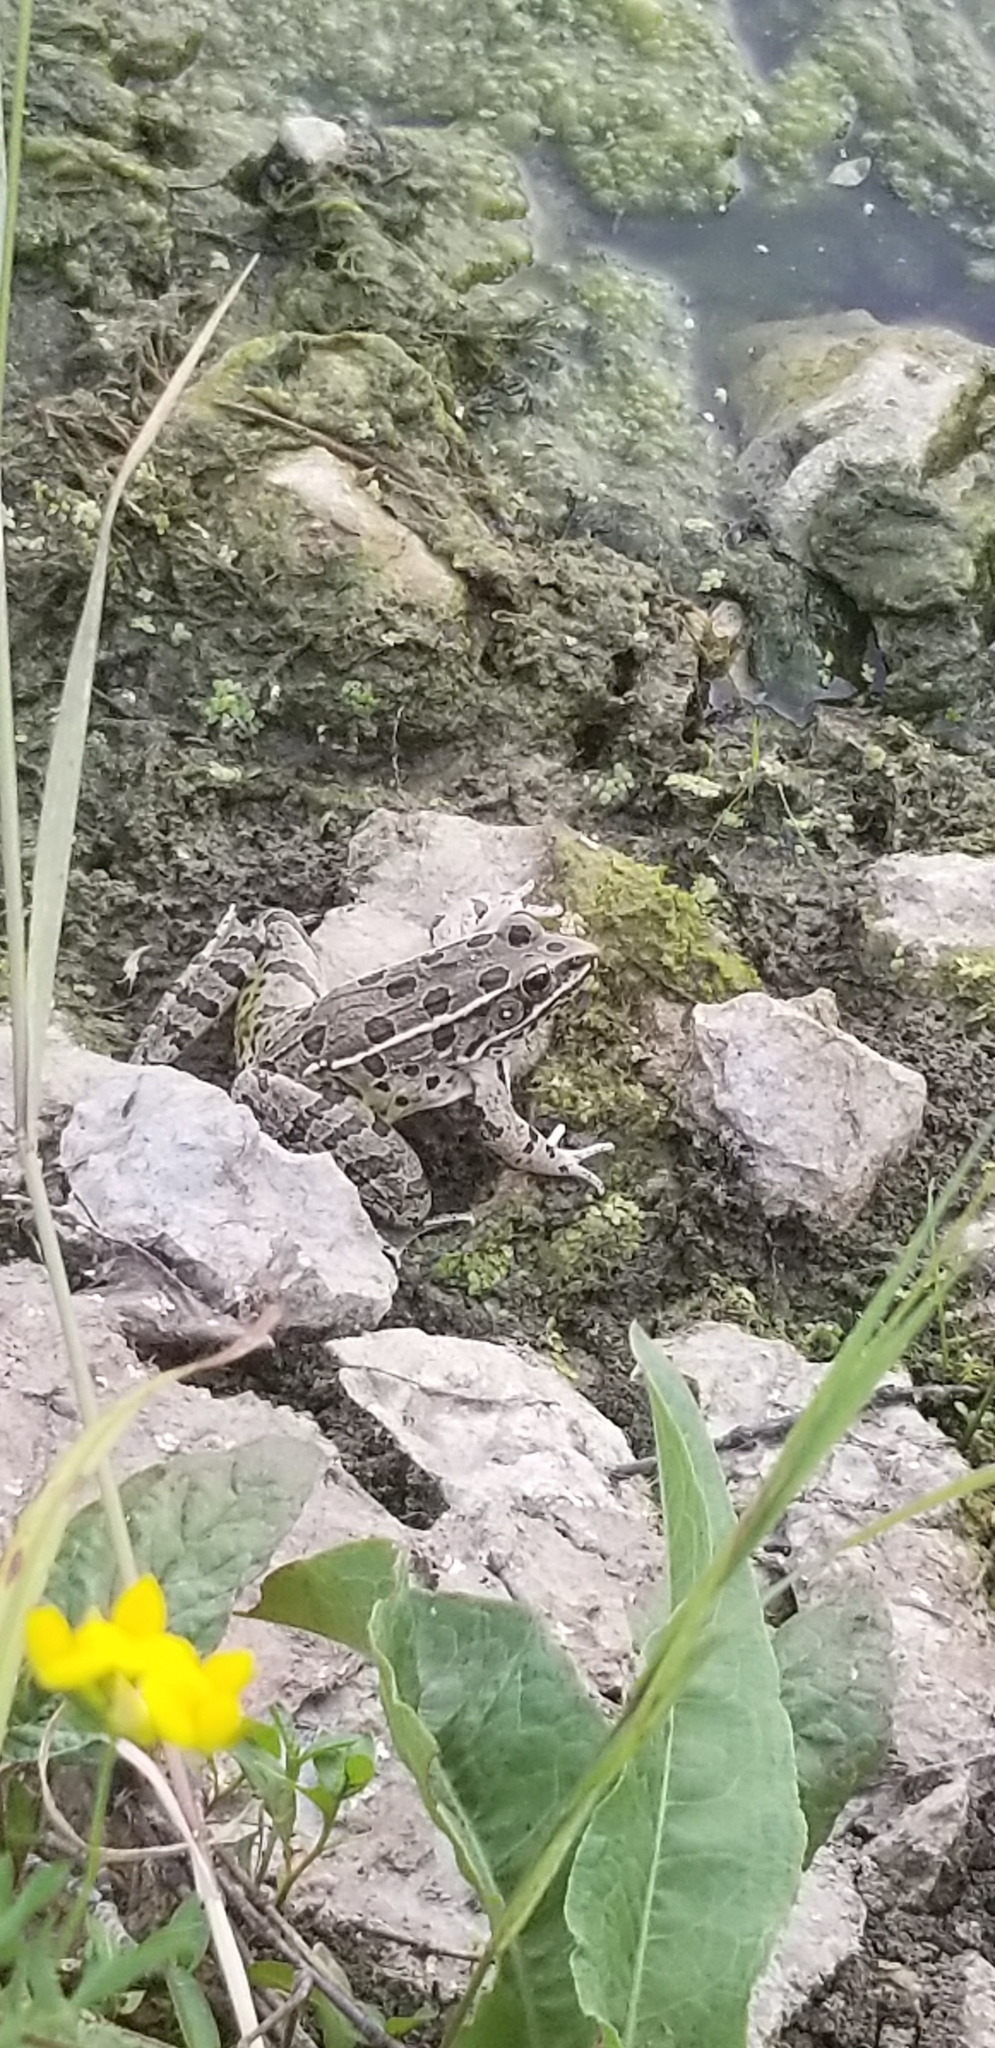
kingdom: Animalia
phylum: Chordata
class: Amphibia
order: Anura
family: Ranidae
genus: Lithobates
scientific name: Lithobates blairi
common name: Plains leopard frog
